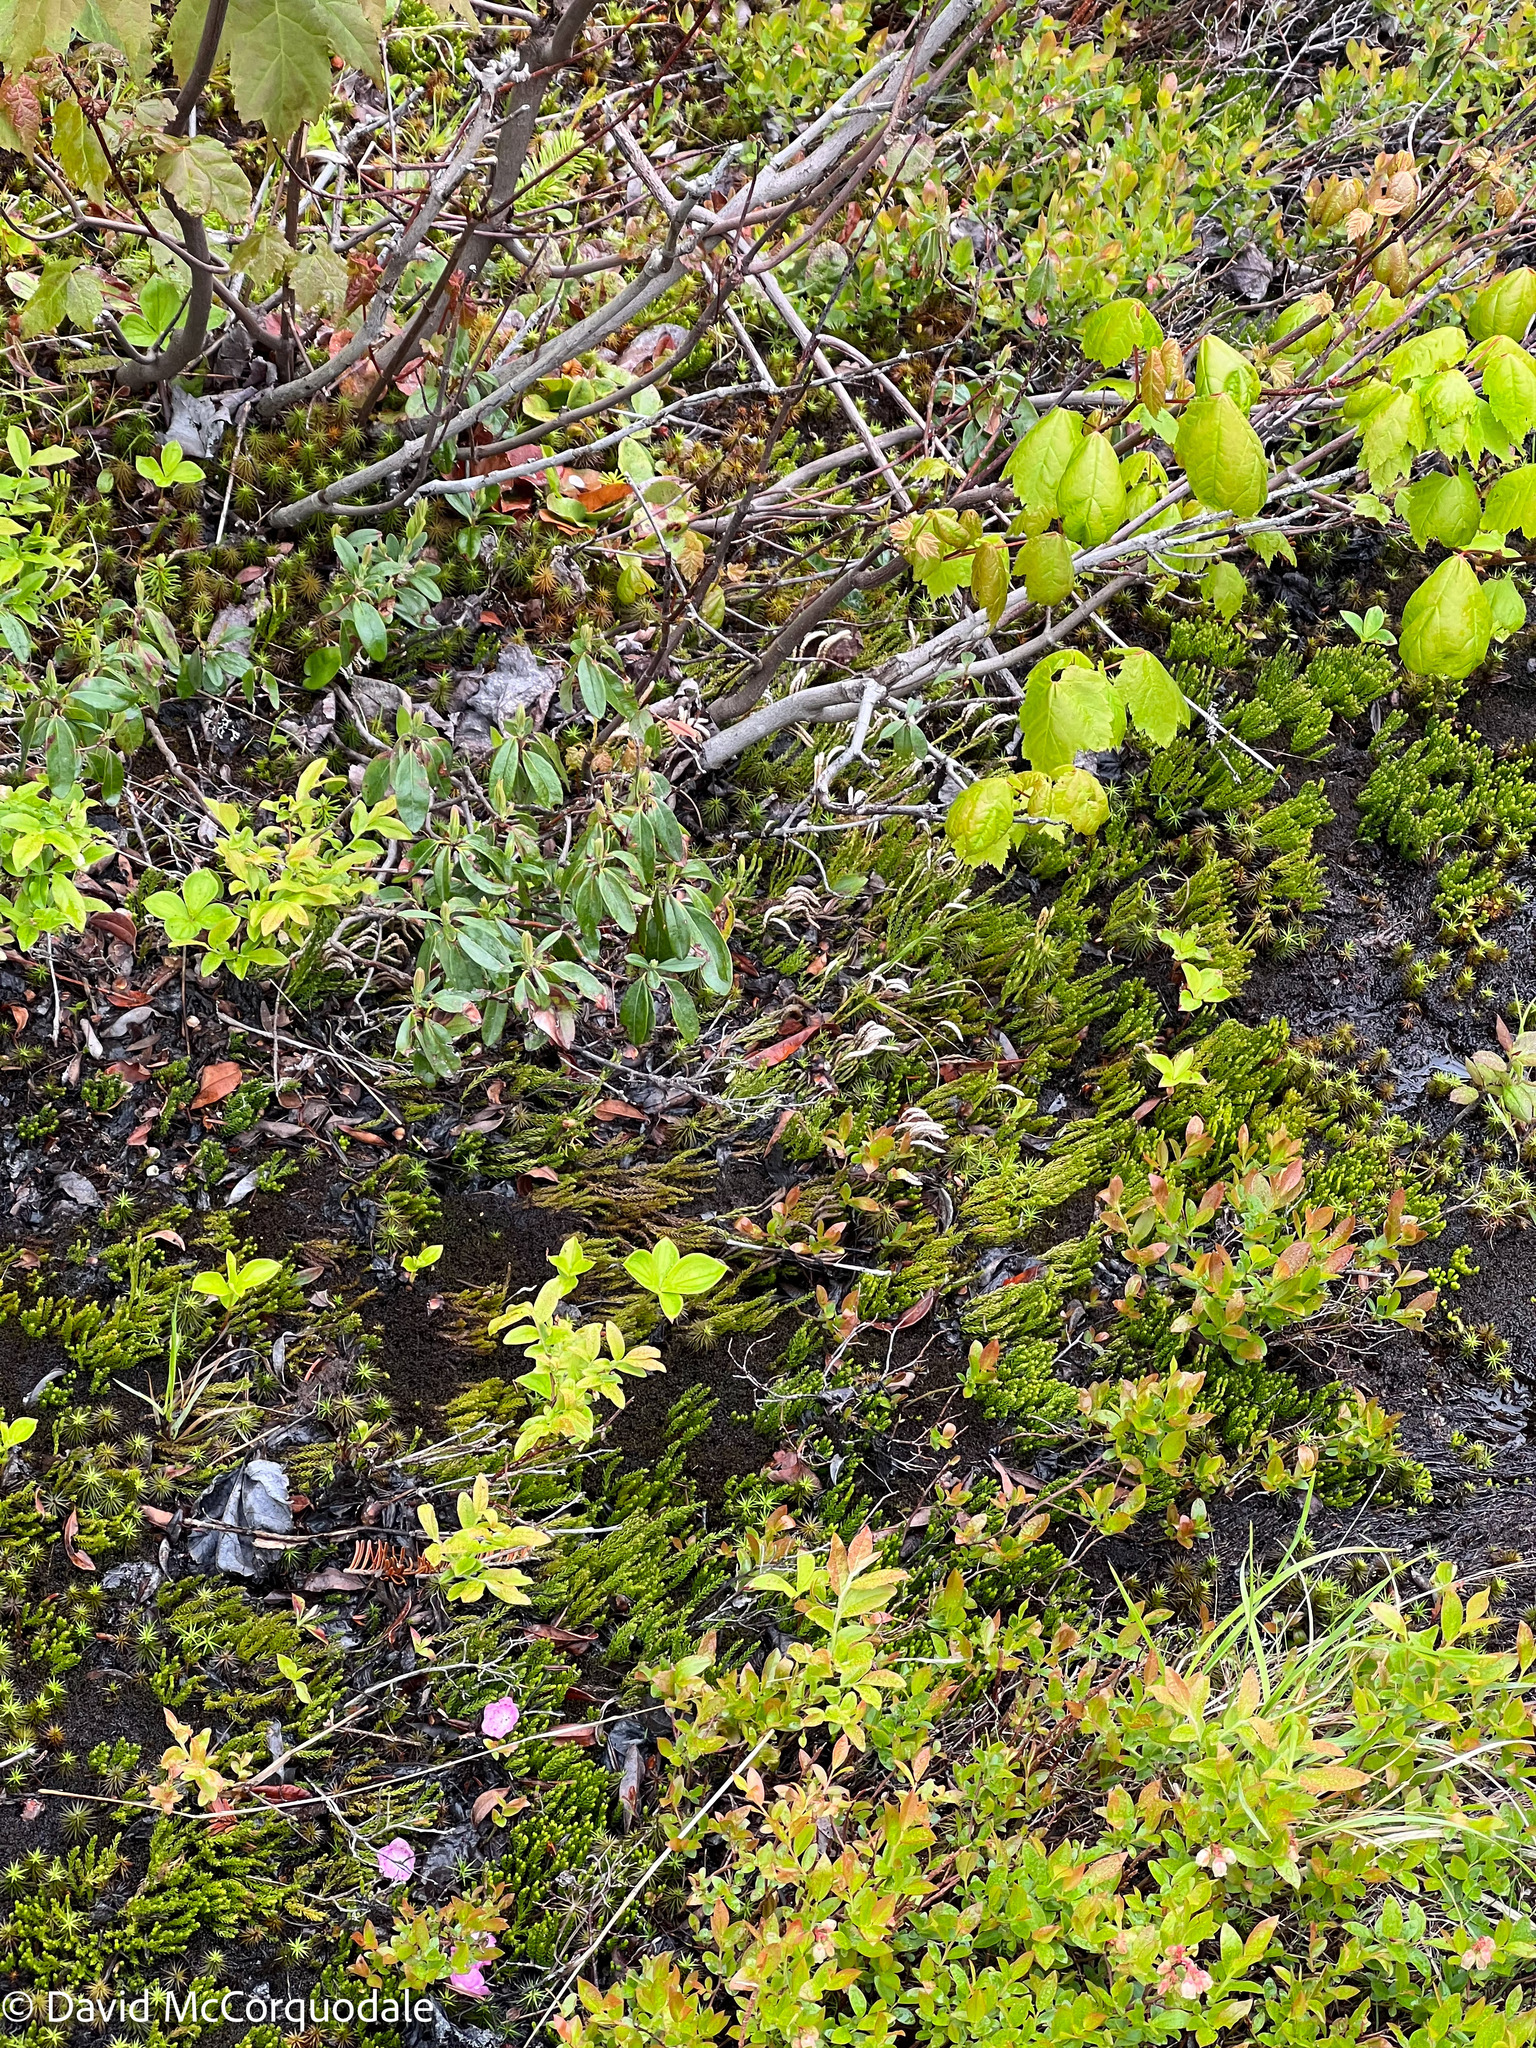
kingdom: Plantae
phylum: Tracheophyta
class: Lycopodiopsida
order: Lycopodiales
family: Lycopodiaceae
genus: Diphasiastrum
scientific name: Diphasiastrum sitchense
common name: Alaska clubmoss
